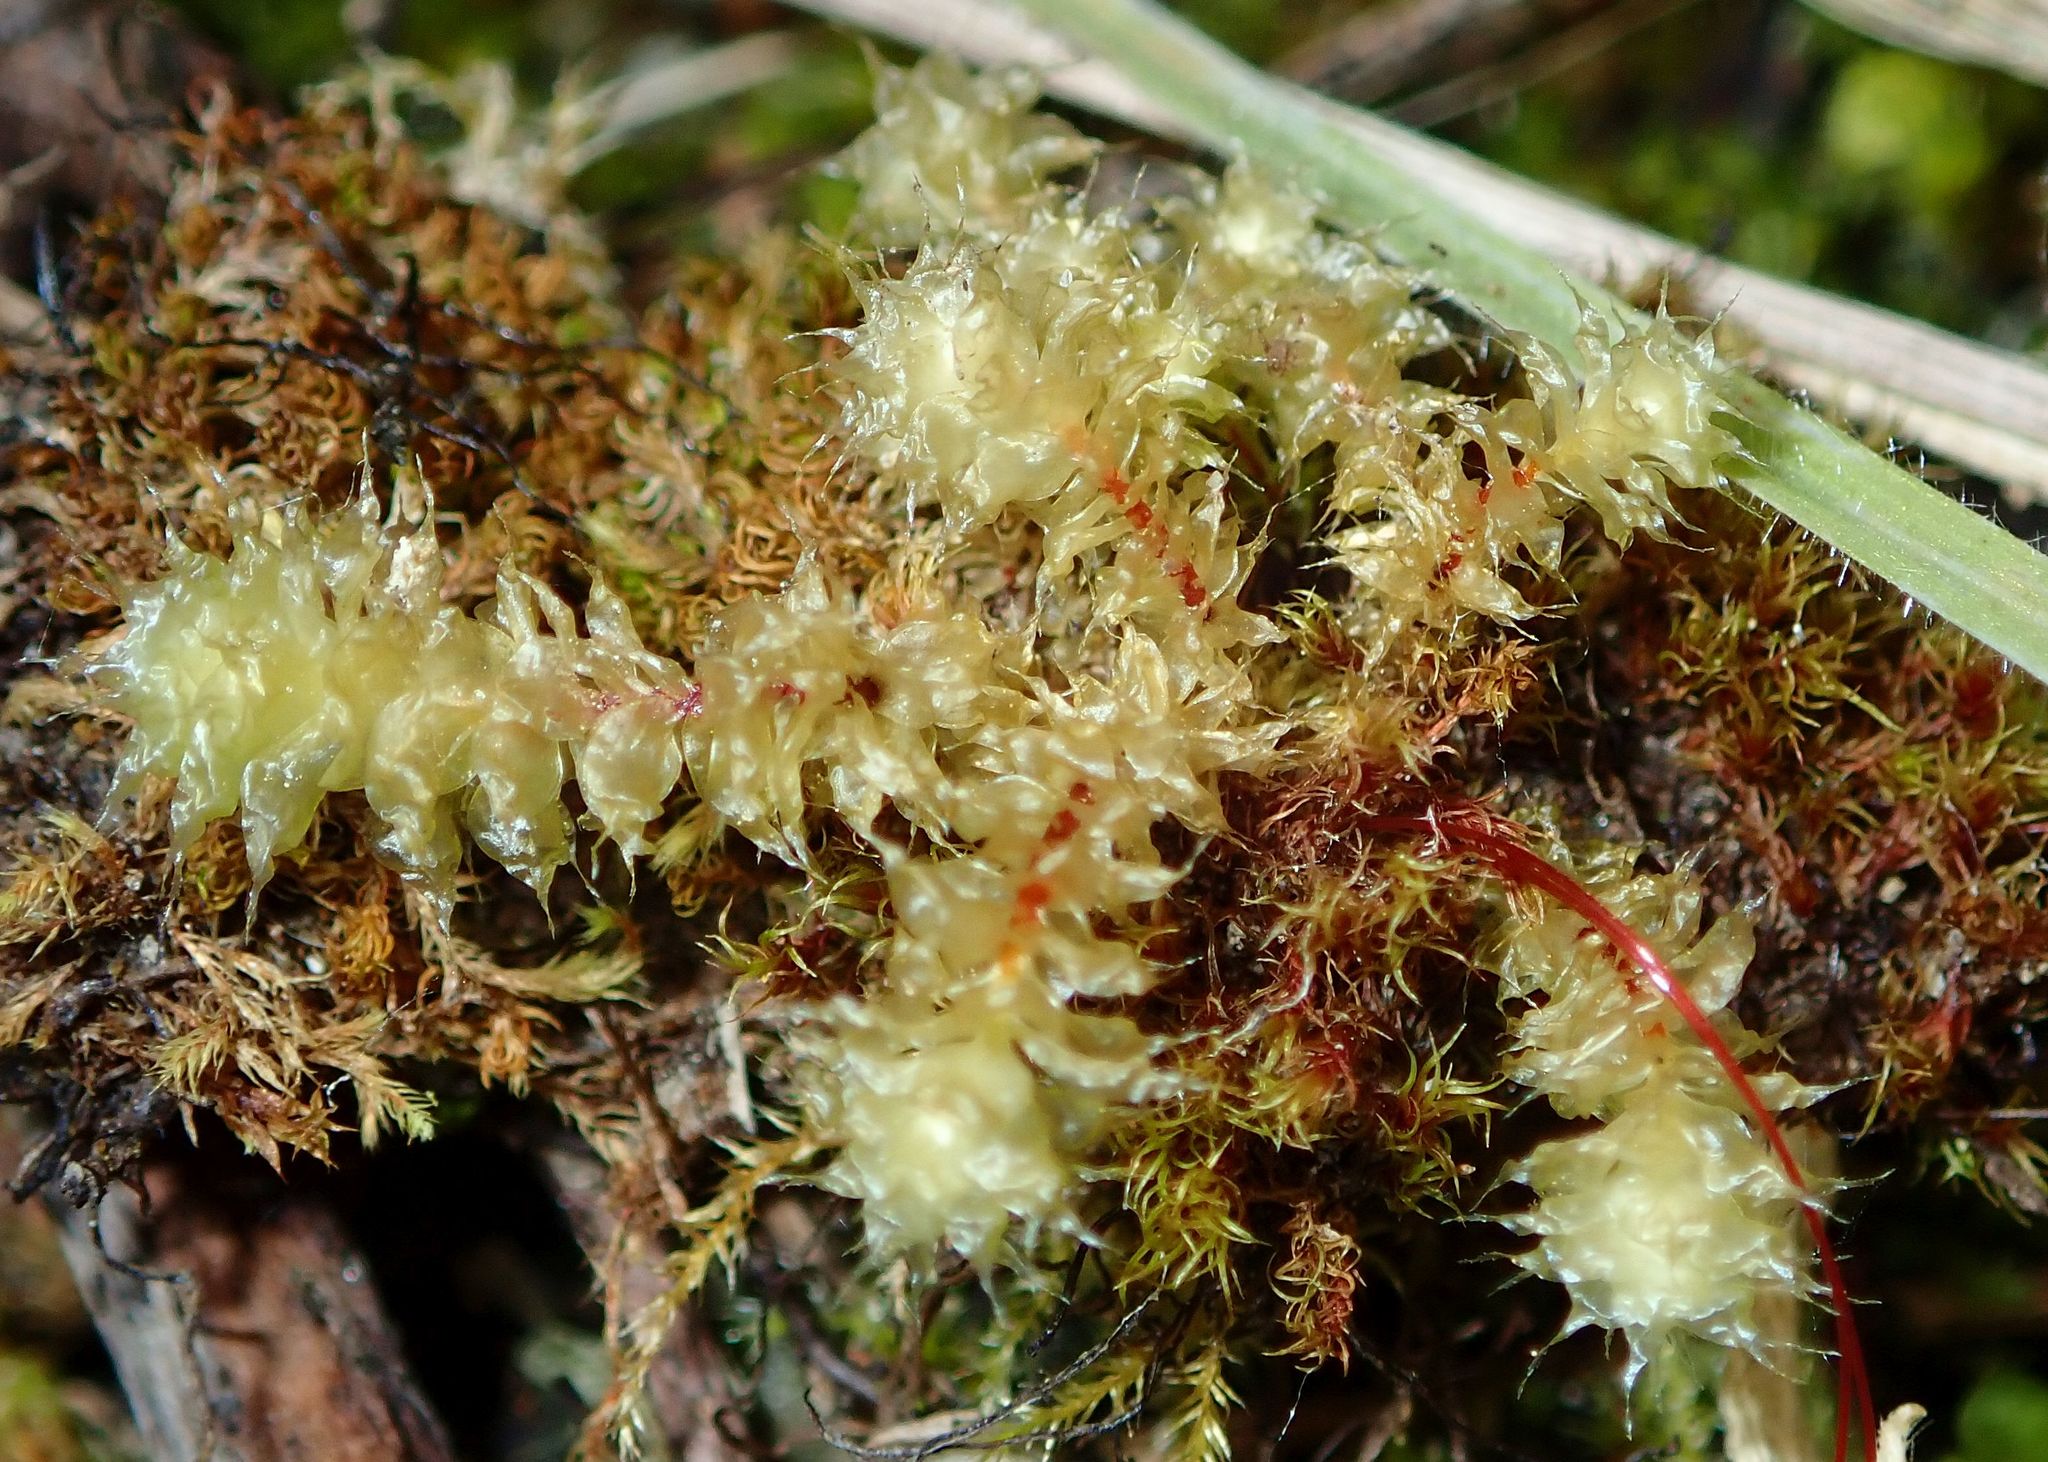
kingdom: Plantae
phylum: Bryophyta
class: Bryopsida
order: Ptychomniales
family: Ptychomniaceae
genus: Ptychomnion
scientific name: Ptychomnion aciculare
